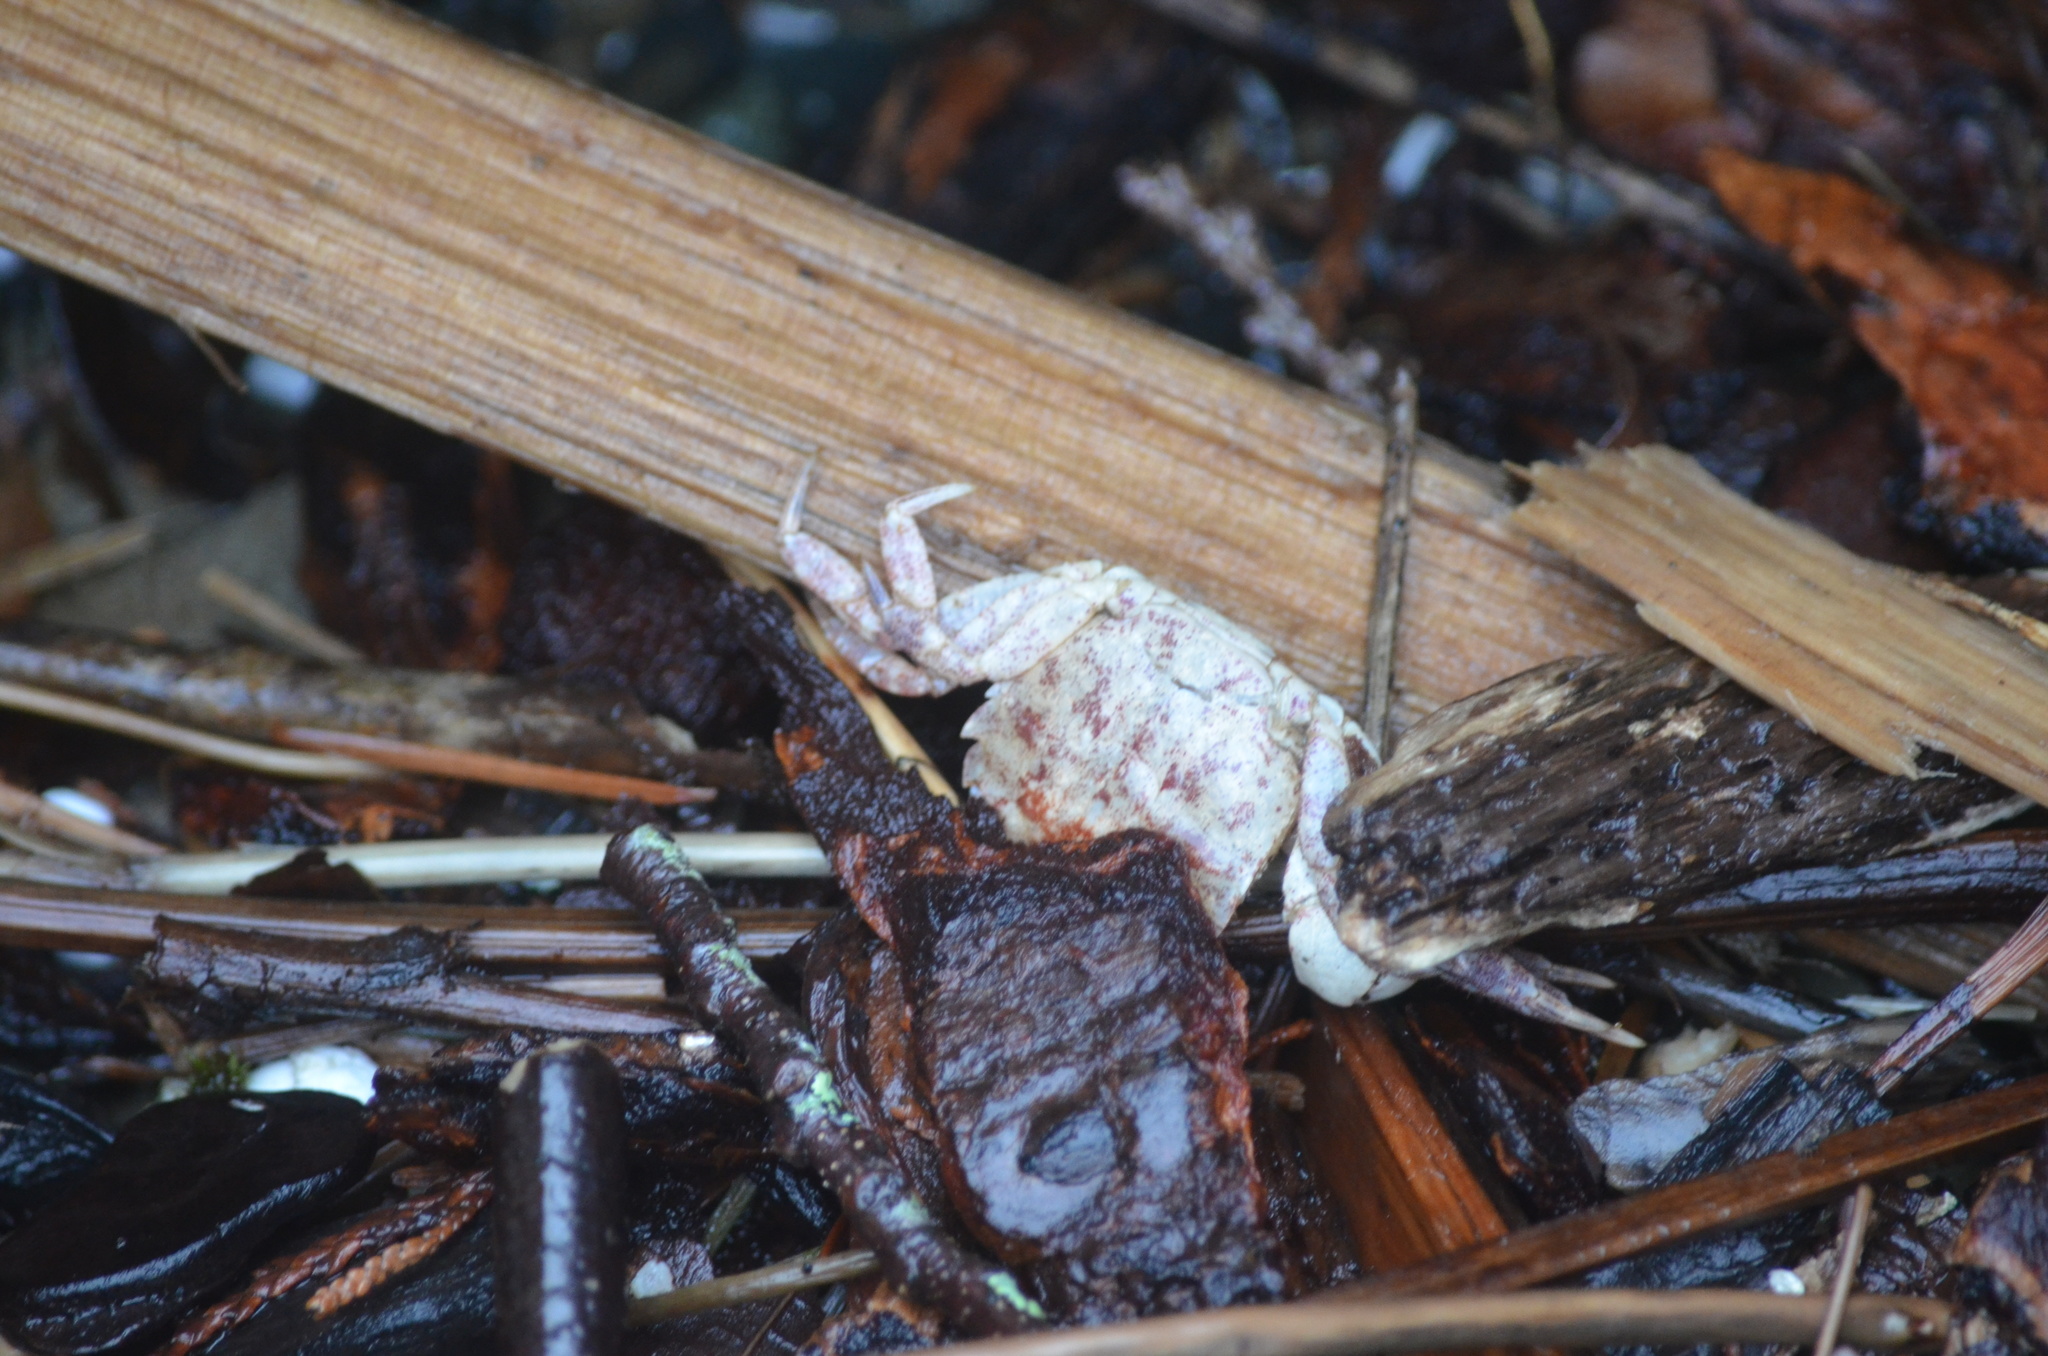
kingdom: Animalia
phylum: Arthropoda
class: Malacostraca
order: Decapoda
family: Varunidae
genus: Hemigrapsus
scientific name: Hemigrapsus oregonensis
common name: Yellow shore crab
